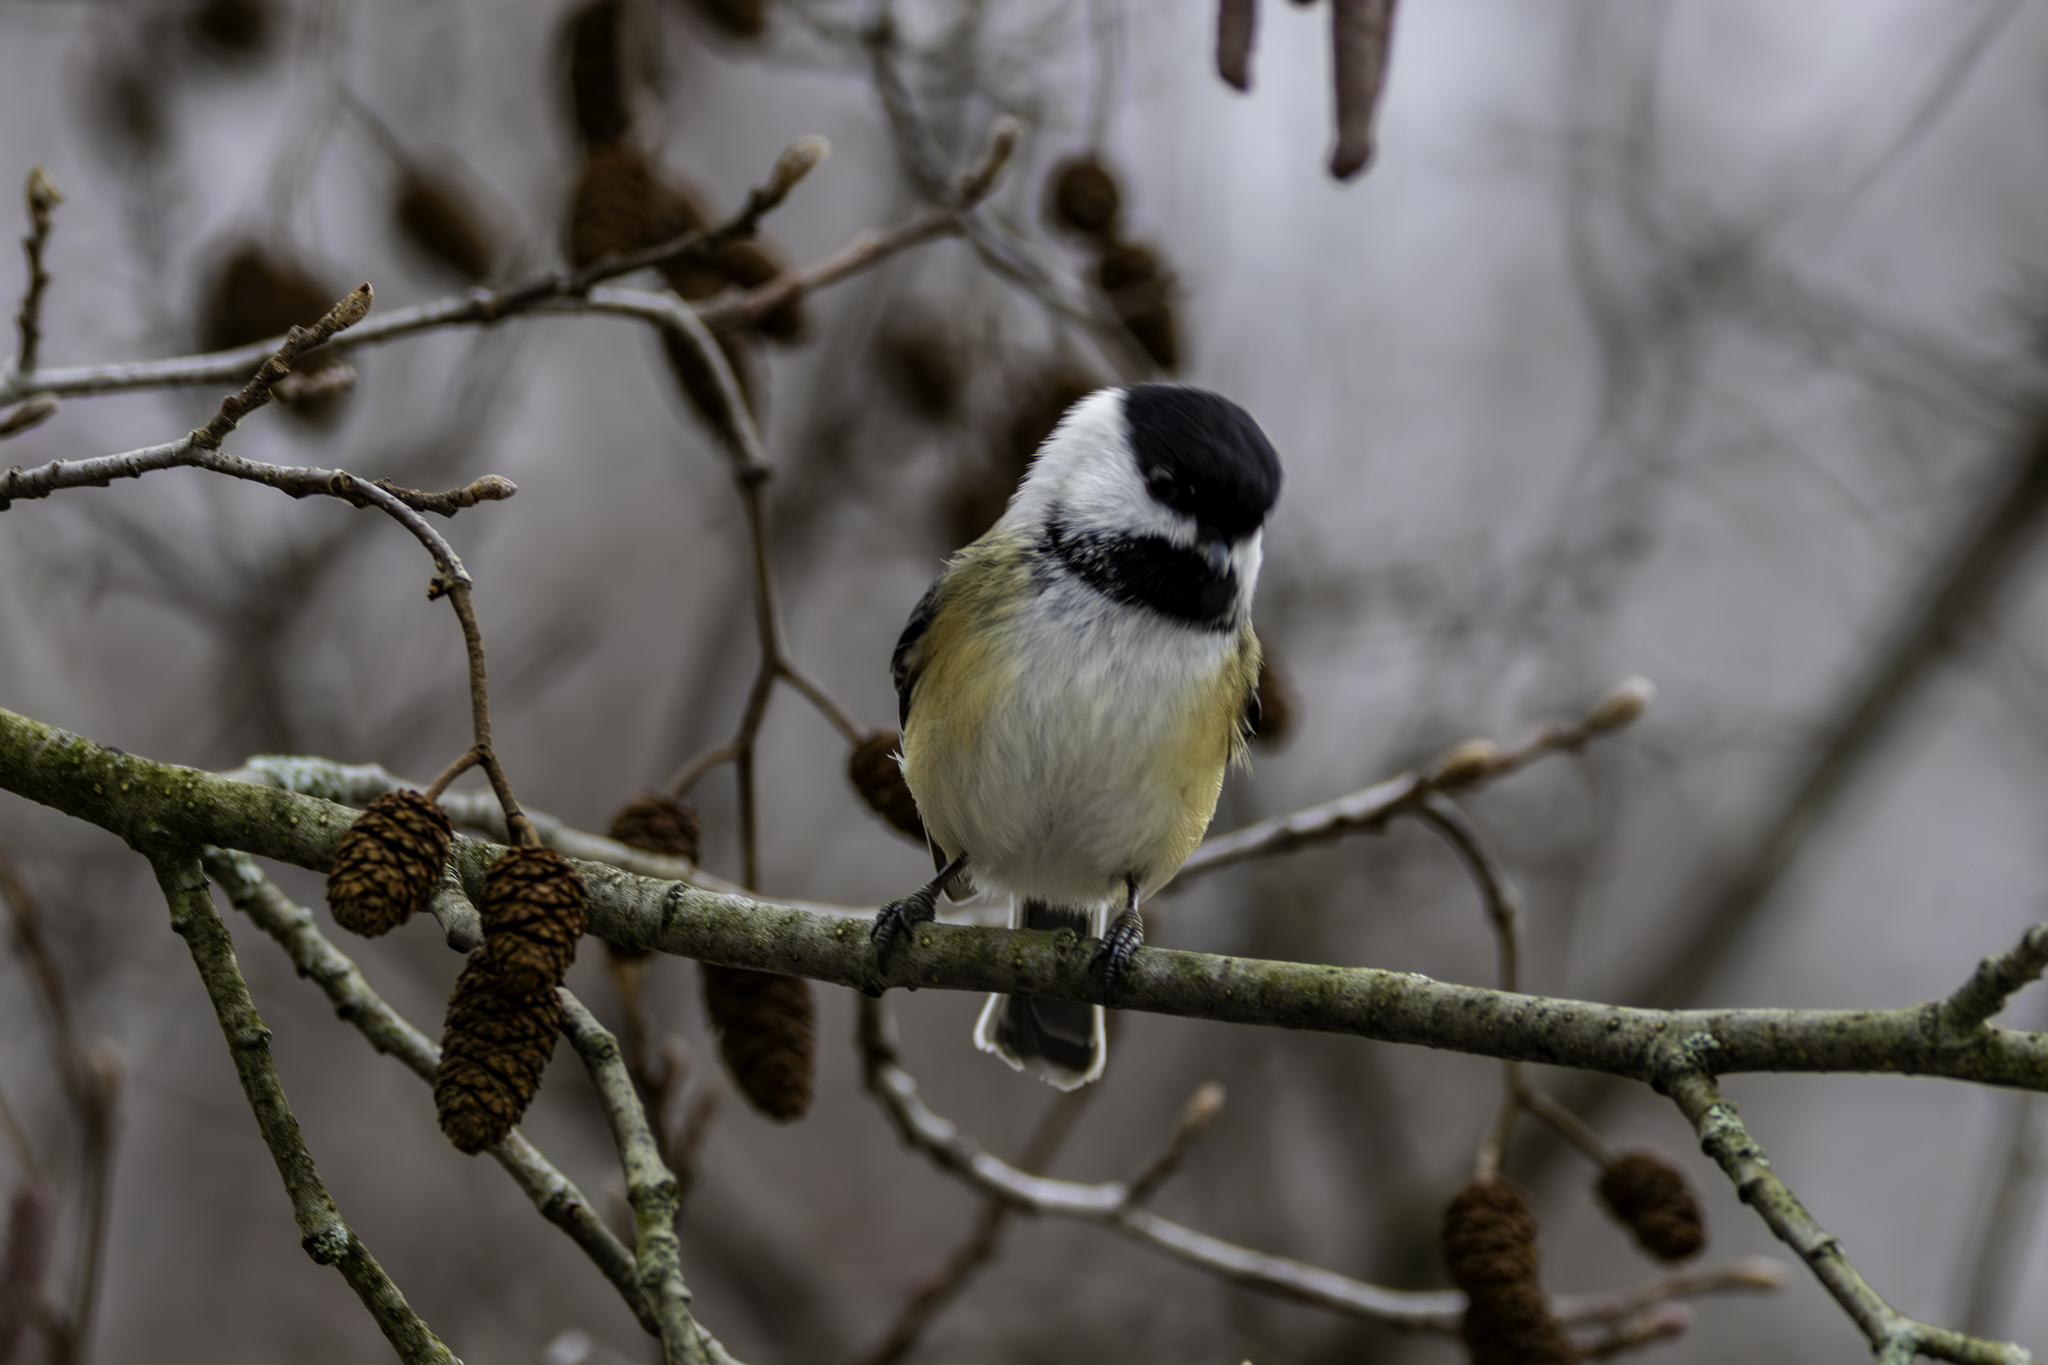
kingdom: Animalia
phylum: Chordata
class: Aves
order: Passeriformes
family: Paridae
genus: Poecile
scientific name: Poecile atricapillus
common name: Black-capped chickadee
